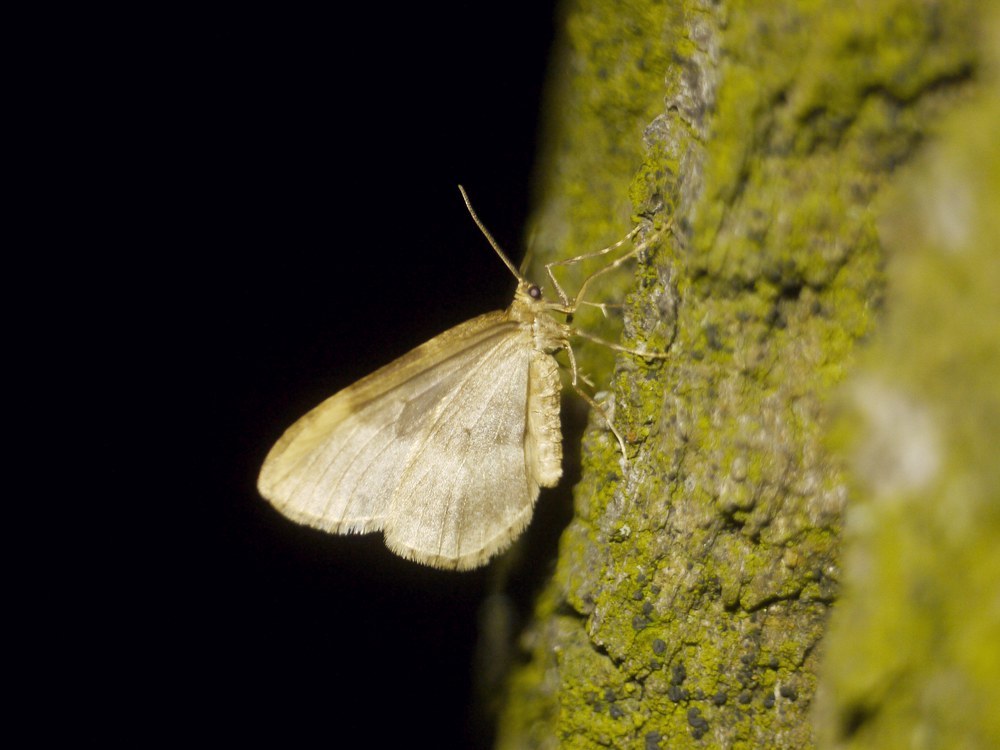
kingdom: Animalia
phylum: Arthropoda
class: Insecta
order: Lepidoptera
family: Geometridae
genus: Operophtera
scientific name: Operophtera brumata
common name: Winter moth
